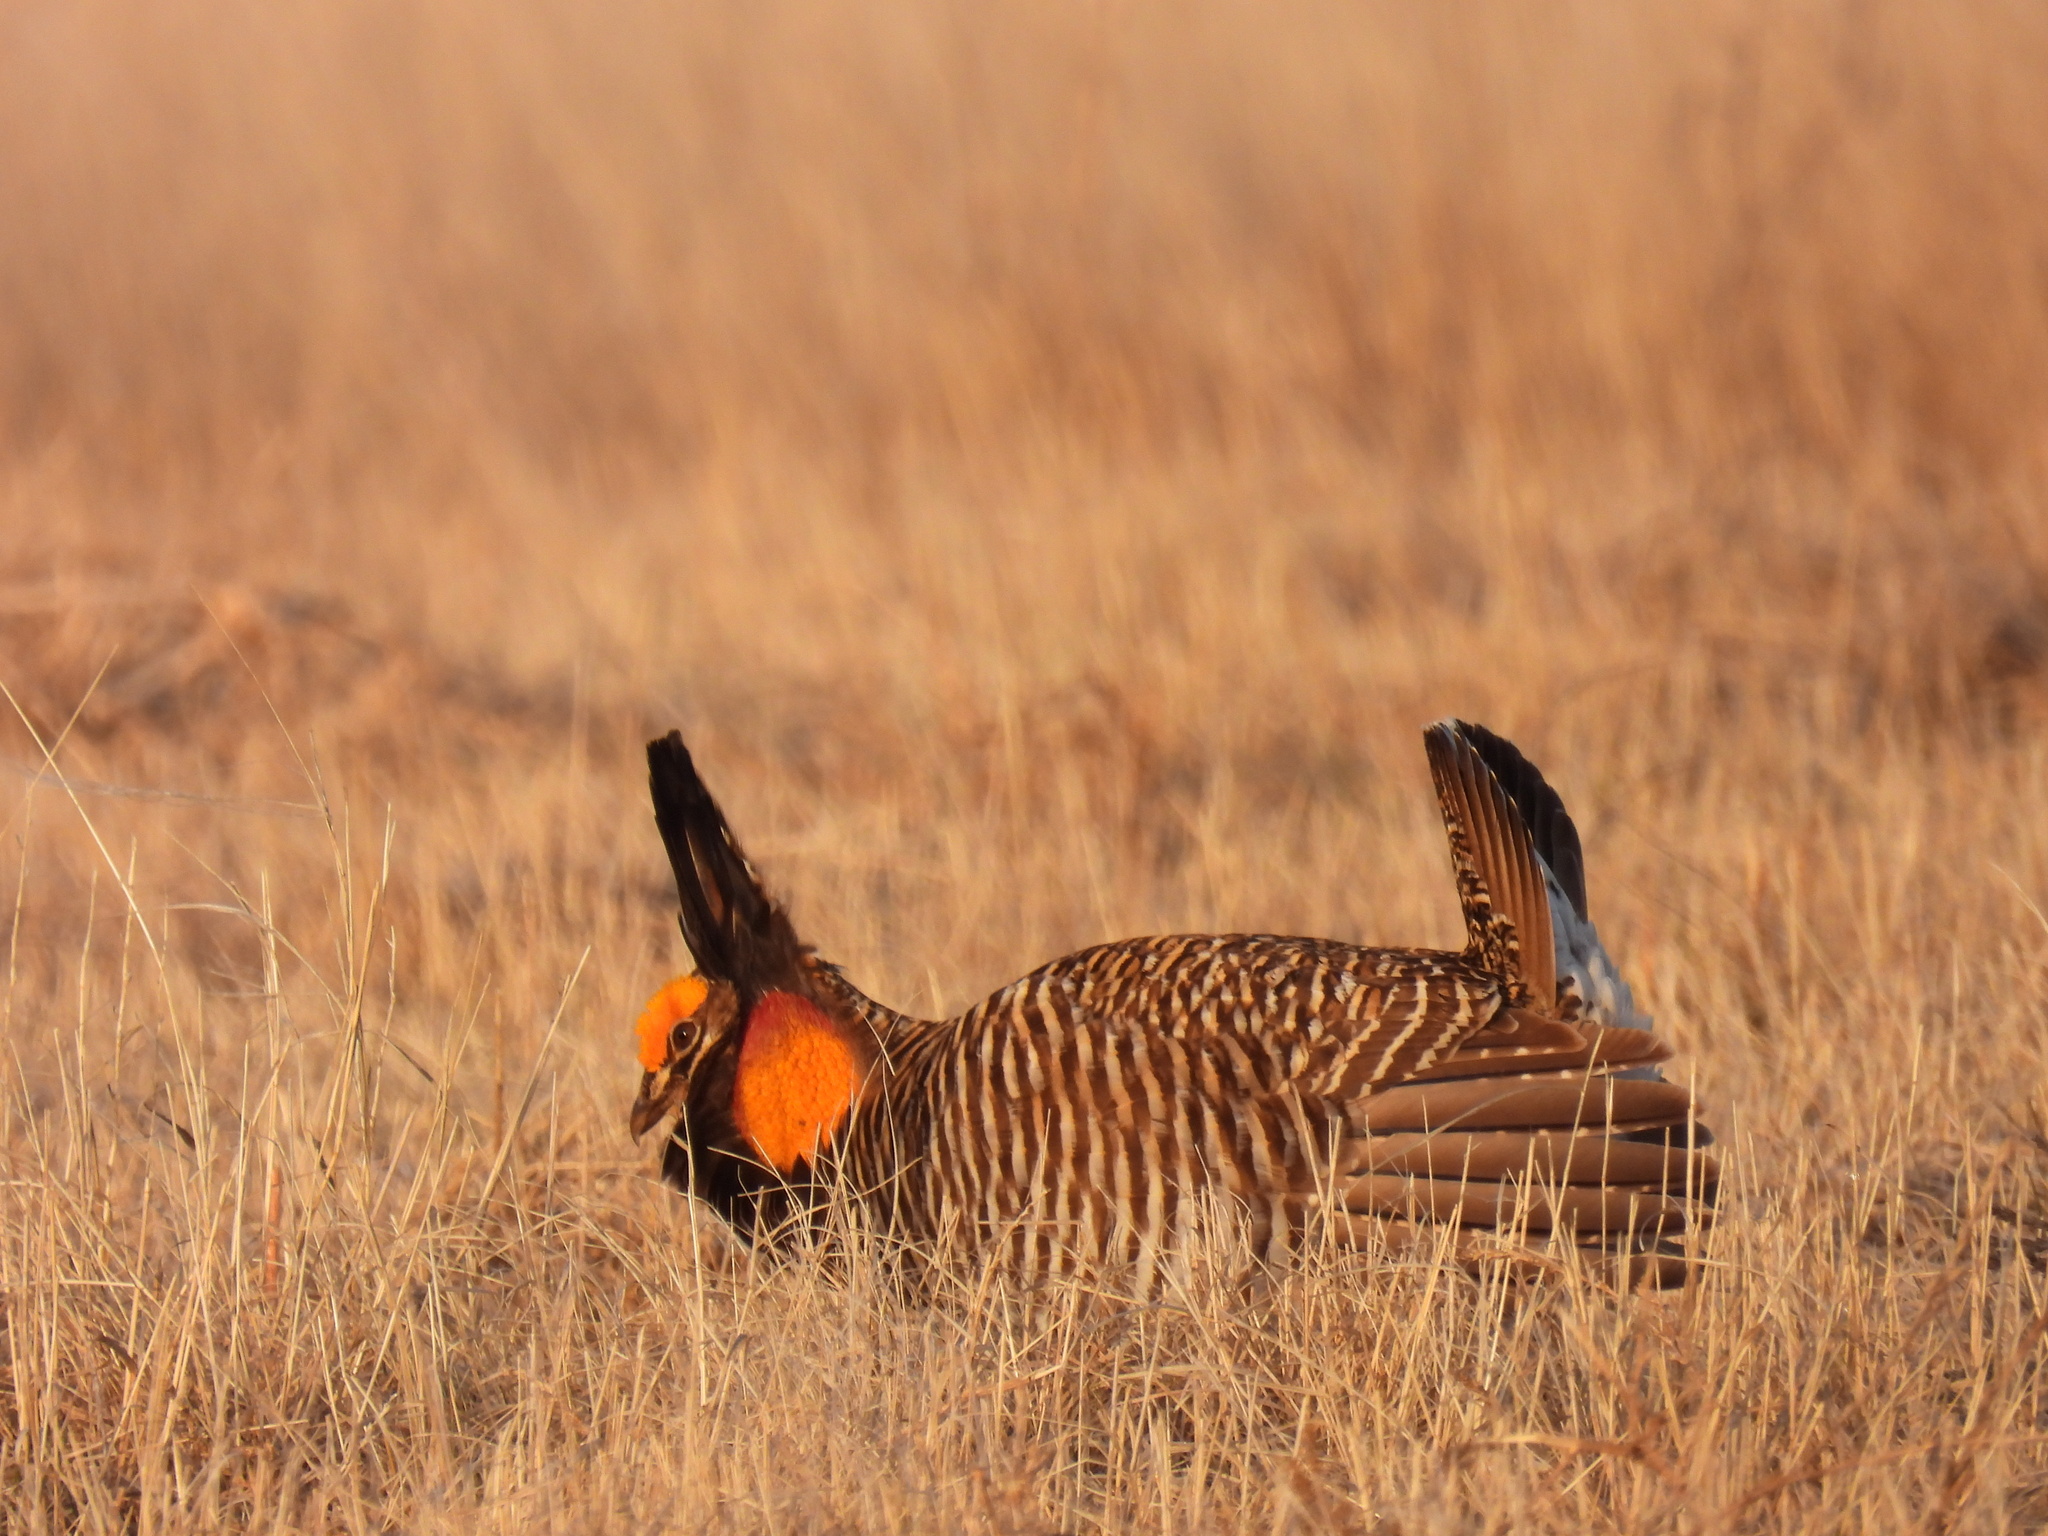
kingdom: Animalia
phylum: Chordata
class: Aves
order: Galliformes
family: Phasianidae
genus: Tympanuchus
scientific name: Tympanuchus cupido
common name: Greater prairie chicken
